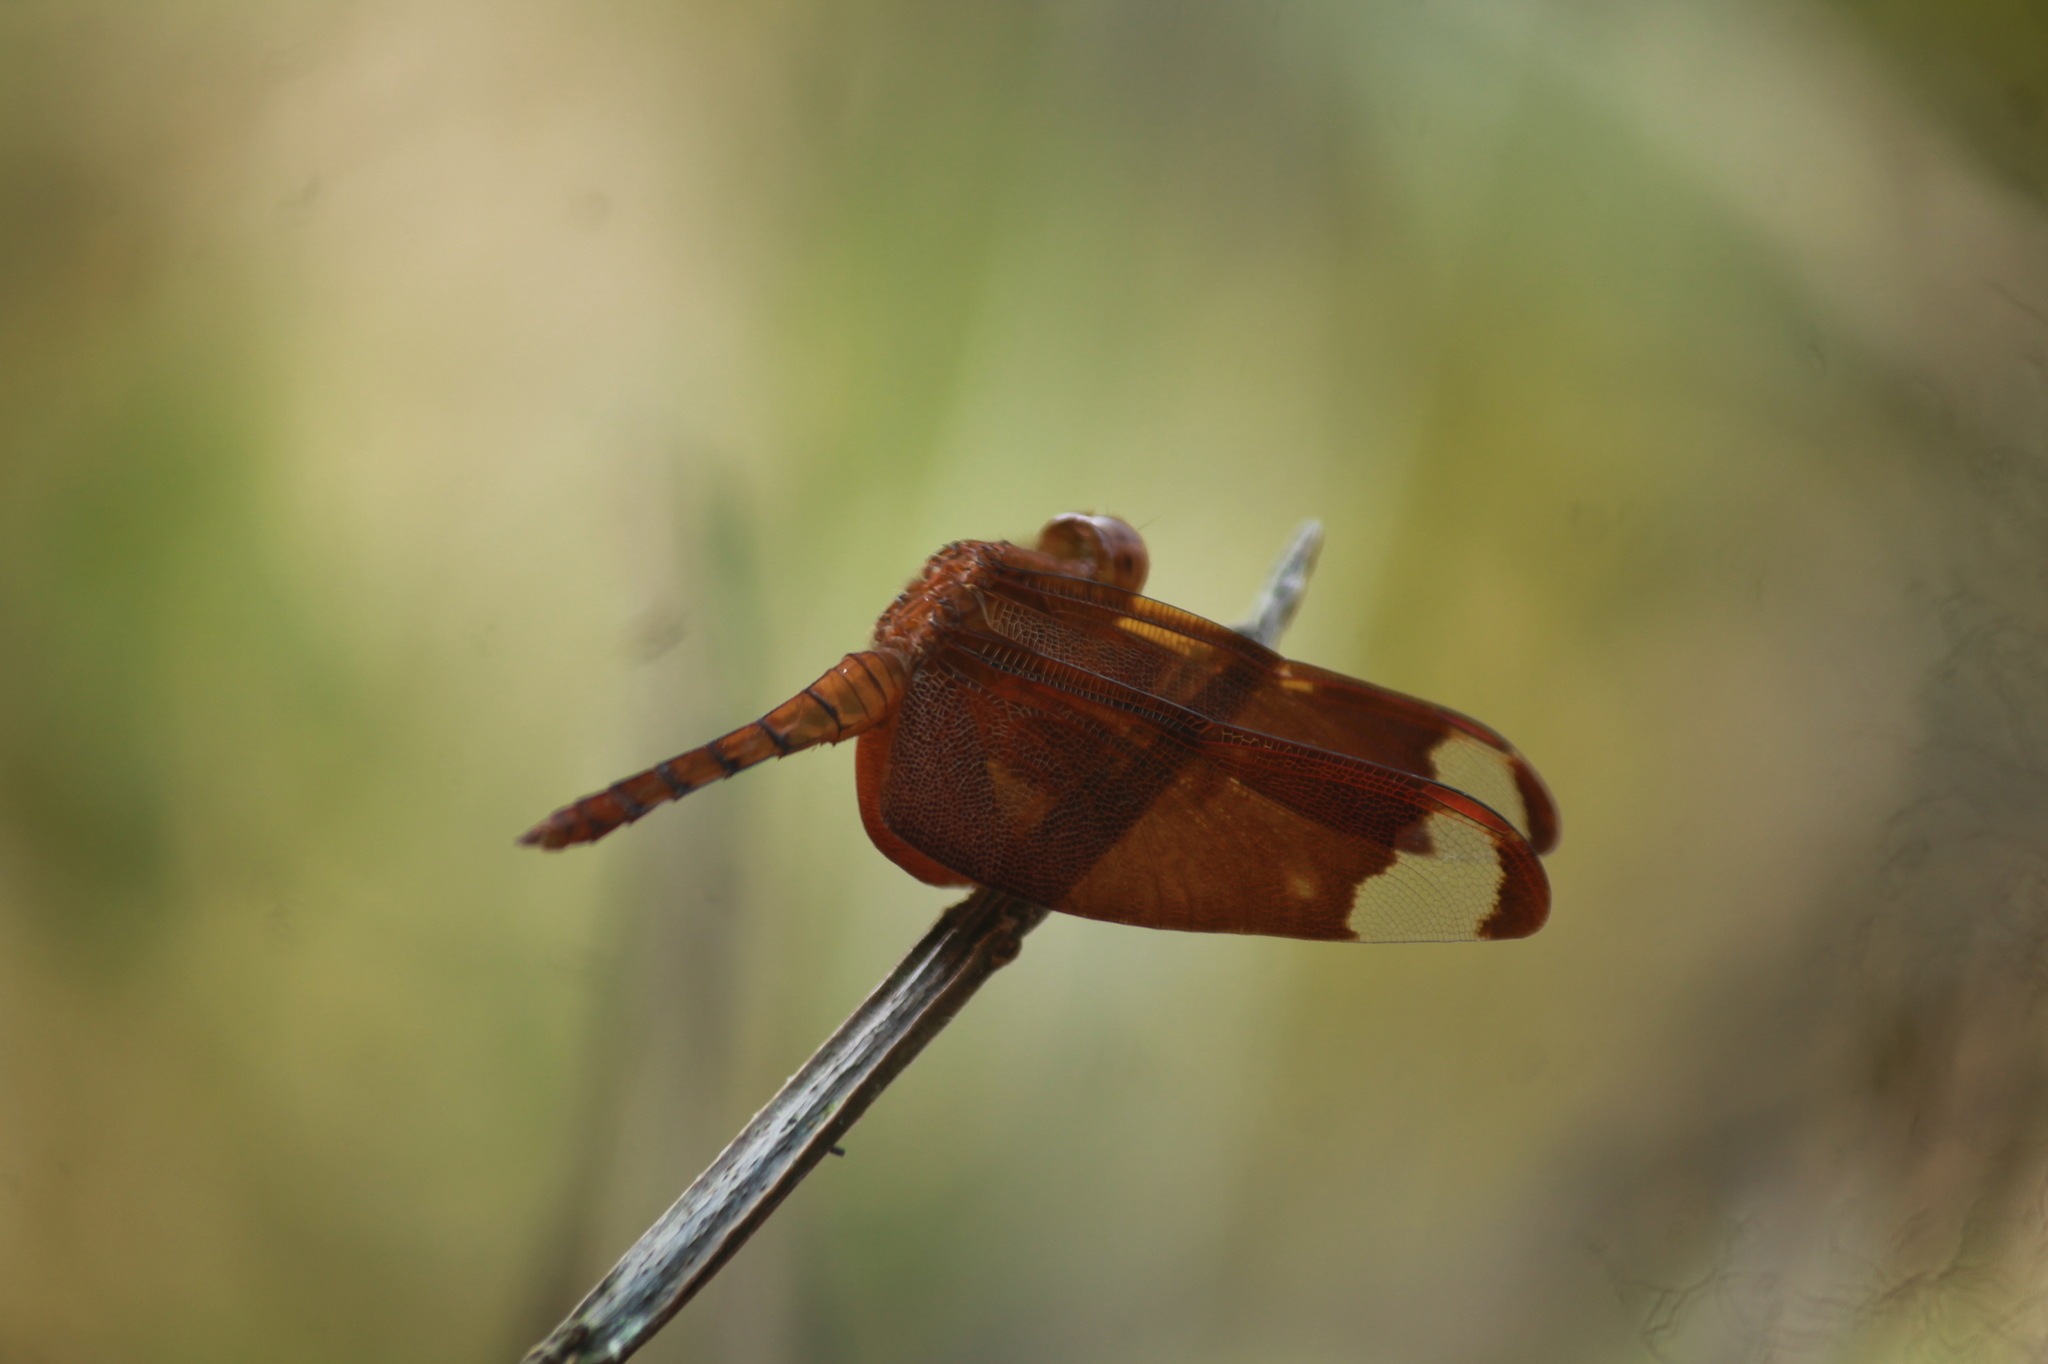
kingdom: Animalia
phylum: Arthropoda
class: Insecta
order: Odonata
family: Libellulidae
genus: Neurothemis
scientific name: Neurothemis fulvia
